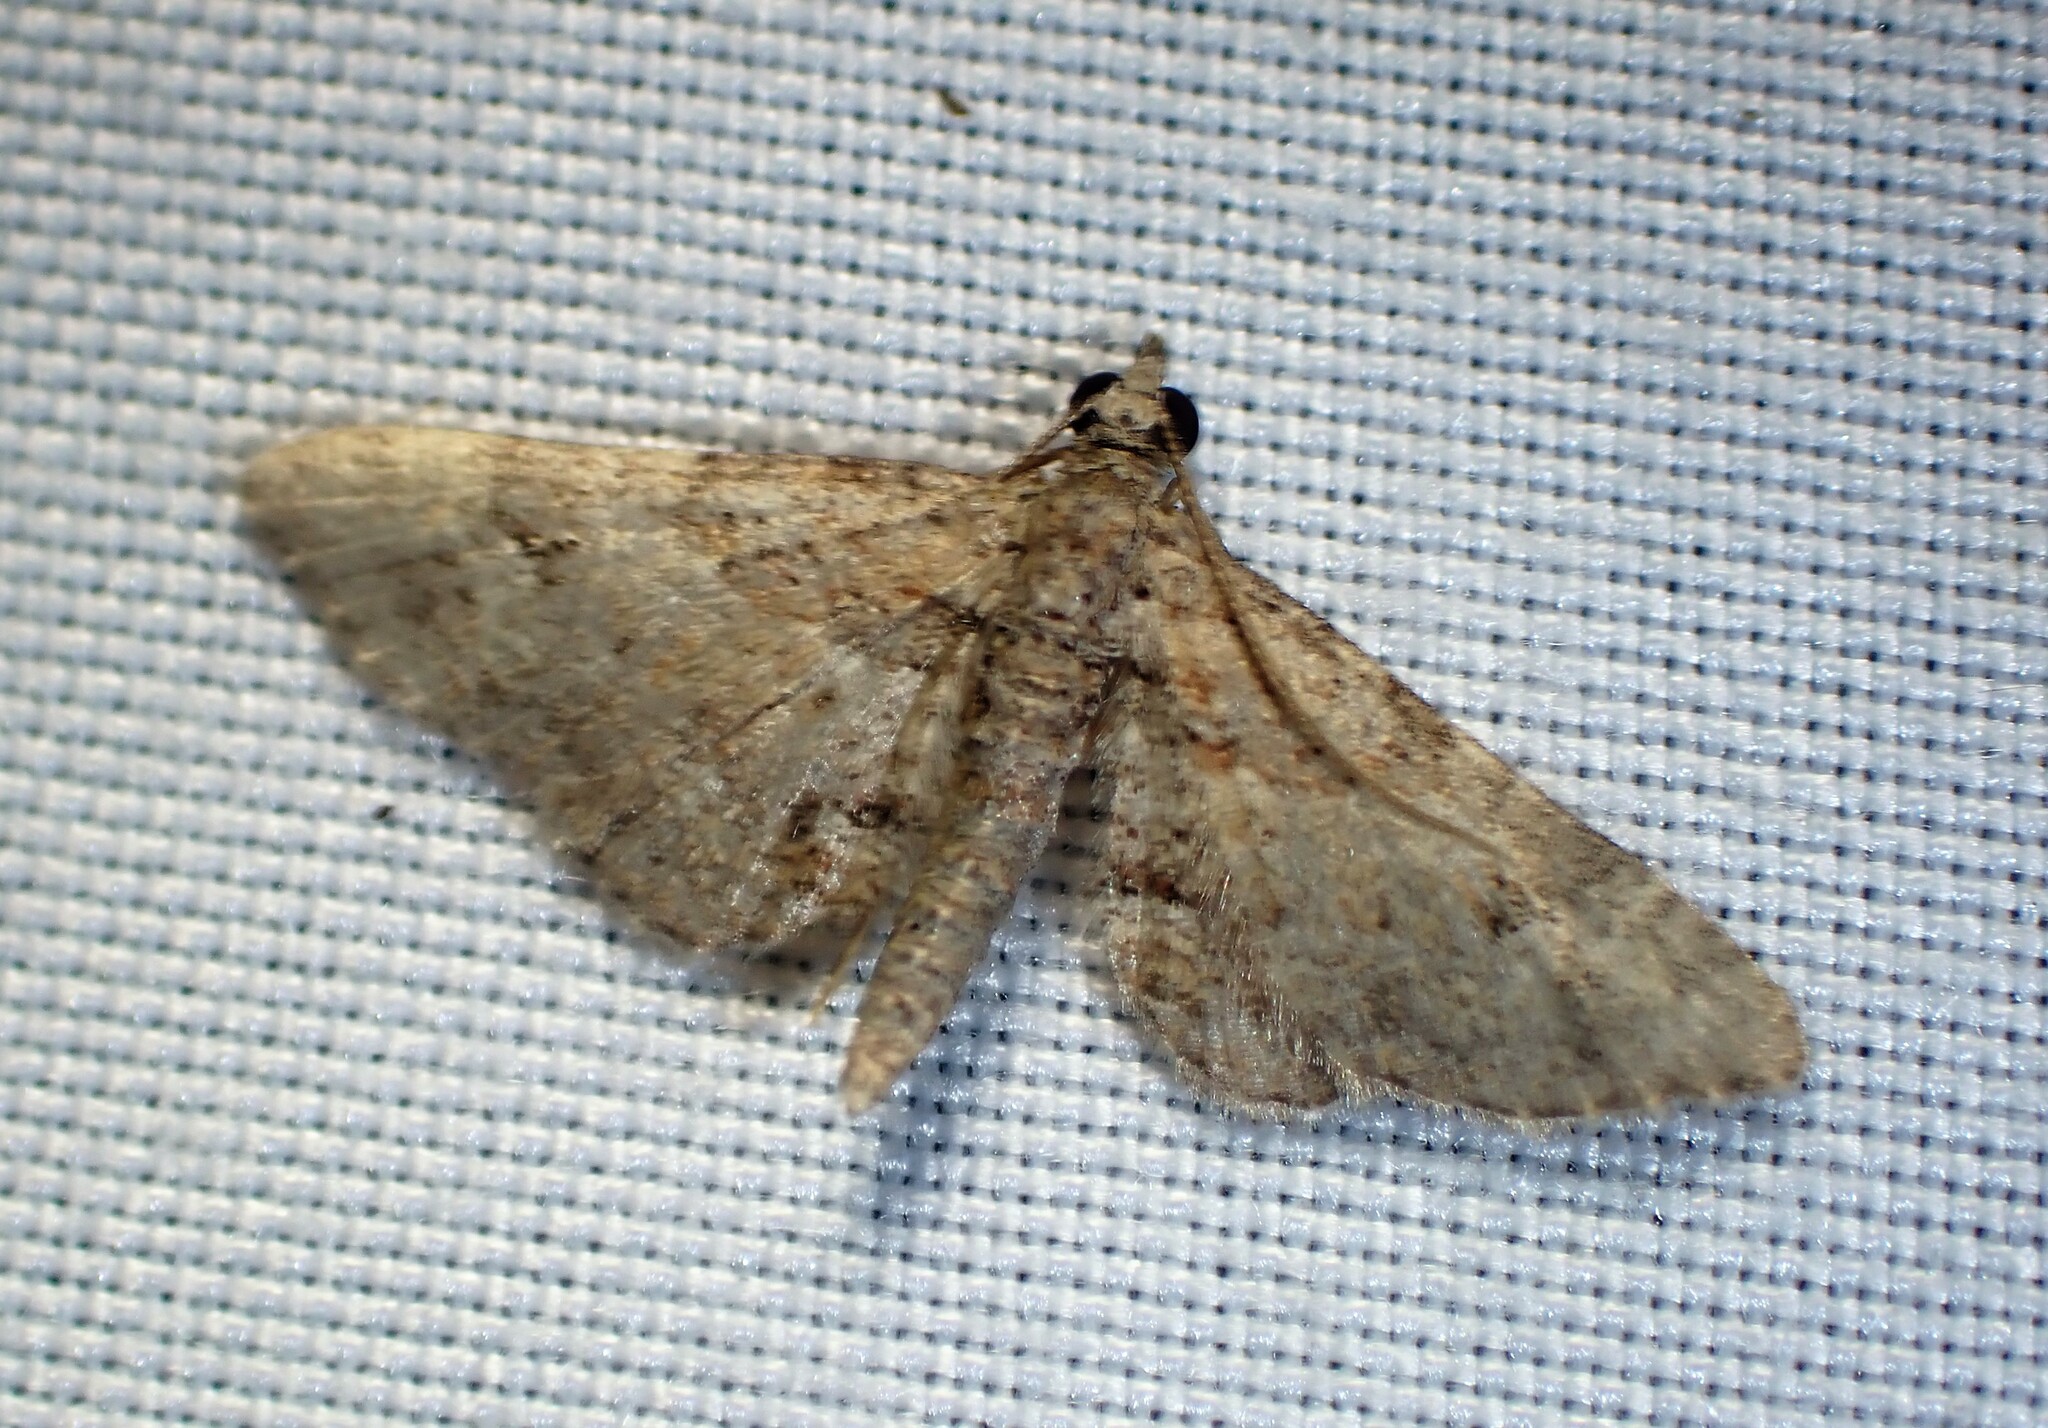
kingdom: Animalia
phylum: Arthropoda
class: Insecta
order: Lepidoptera
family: Geometridae
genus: Gymnoscelis
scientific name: Gymnoscelis rufifasciata
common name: Double-striped pug
